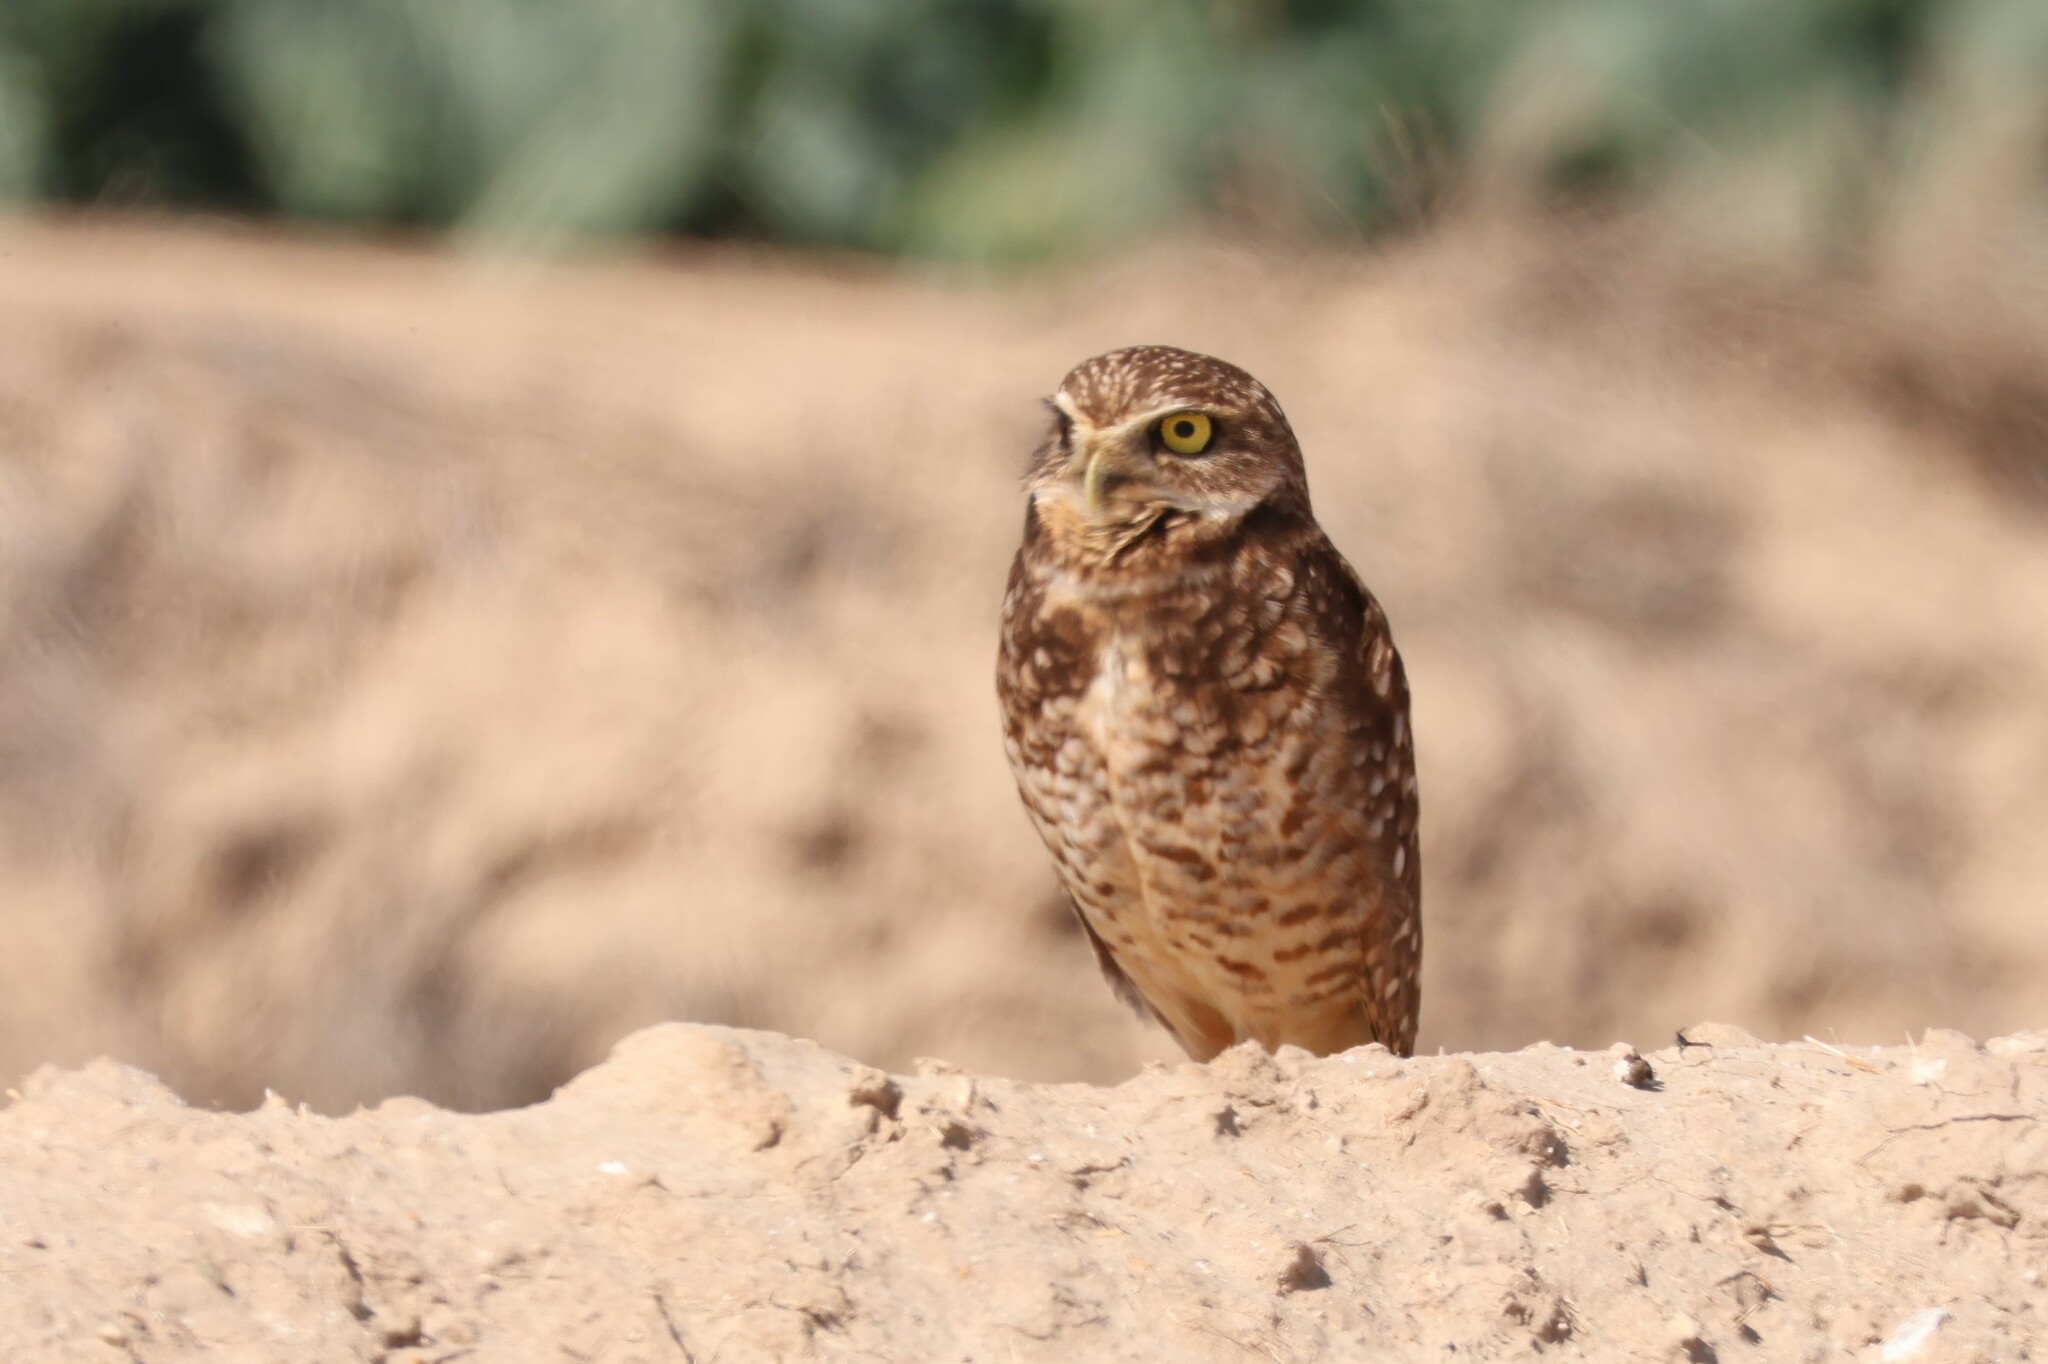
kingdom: Animalia
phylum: Chordata
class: Aves
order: Strigiformes
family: Strigidae
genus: Athene
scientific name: Athene cunicularia
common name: Burrowing owl
